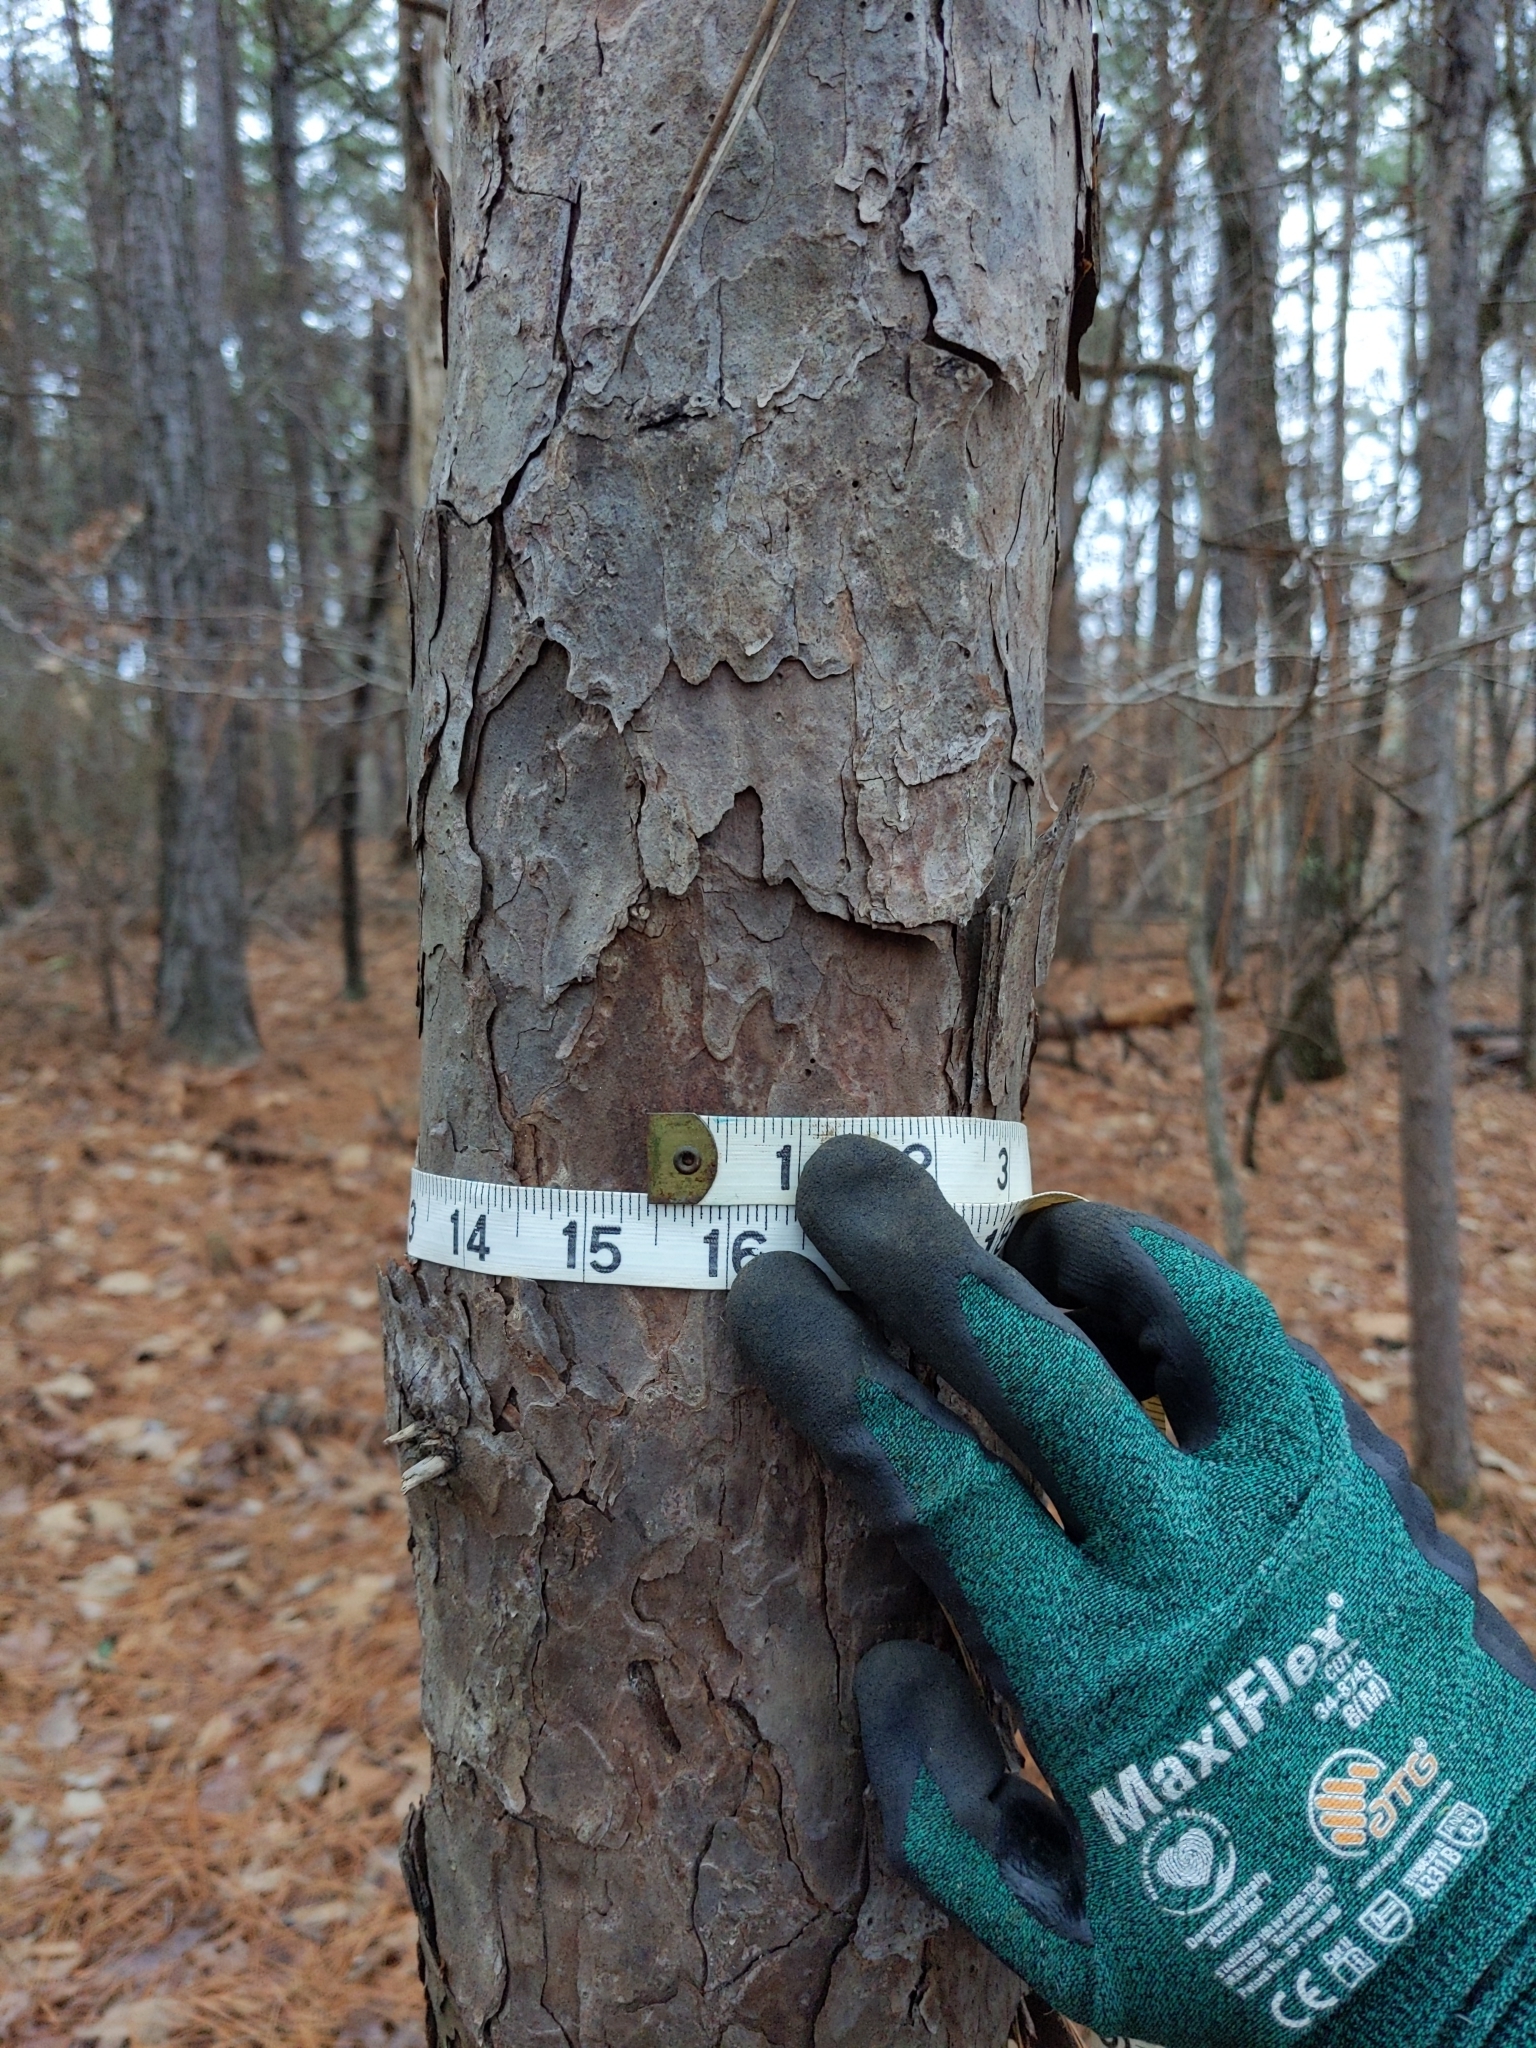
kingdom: Plantae
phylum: Tracheophyta
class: Pinopsida
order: Pinales
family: Pinaceae
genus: Pinus
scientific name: Pinus echinata
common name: Shortleaf pine
